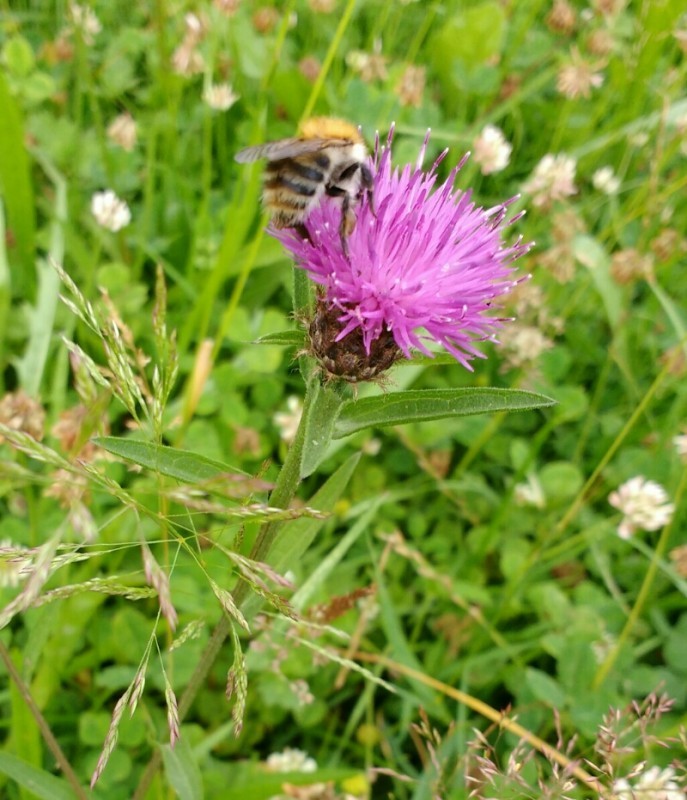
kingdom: Plantae
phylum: Tracheophyta
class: Magnoliopsida
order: Asterales
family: Asteraceae
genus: Centaurea
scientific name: Centaurea jacea
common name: Brown knapweed
